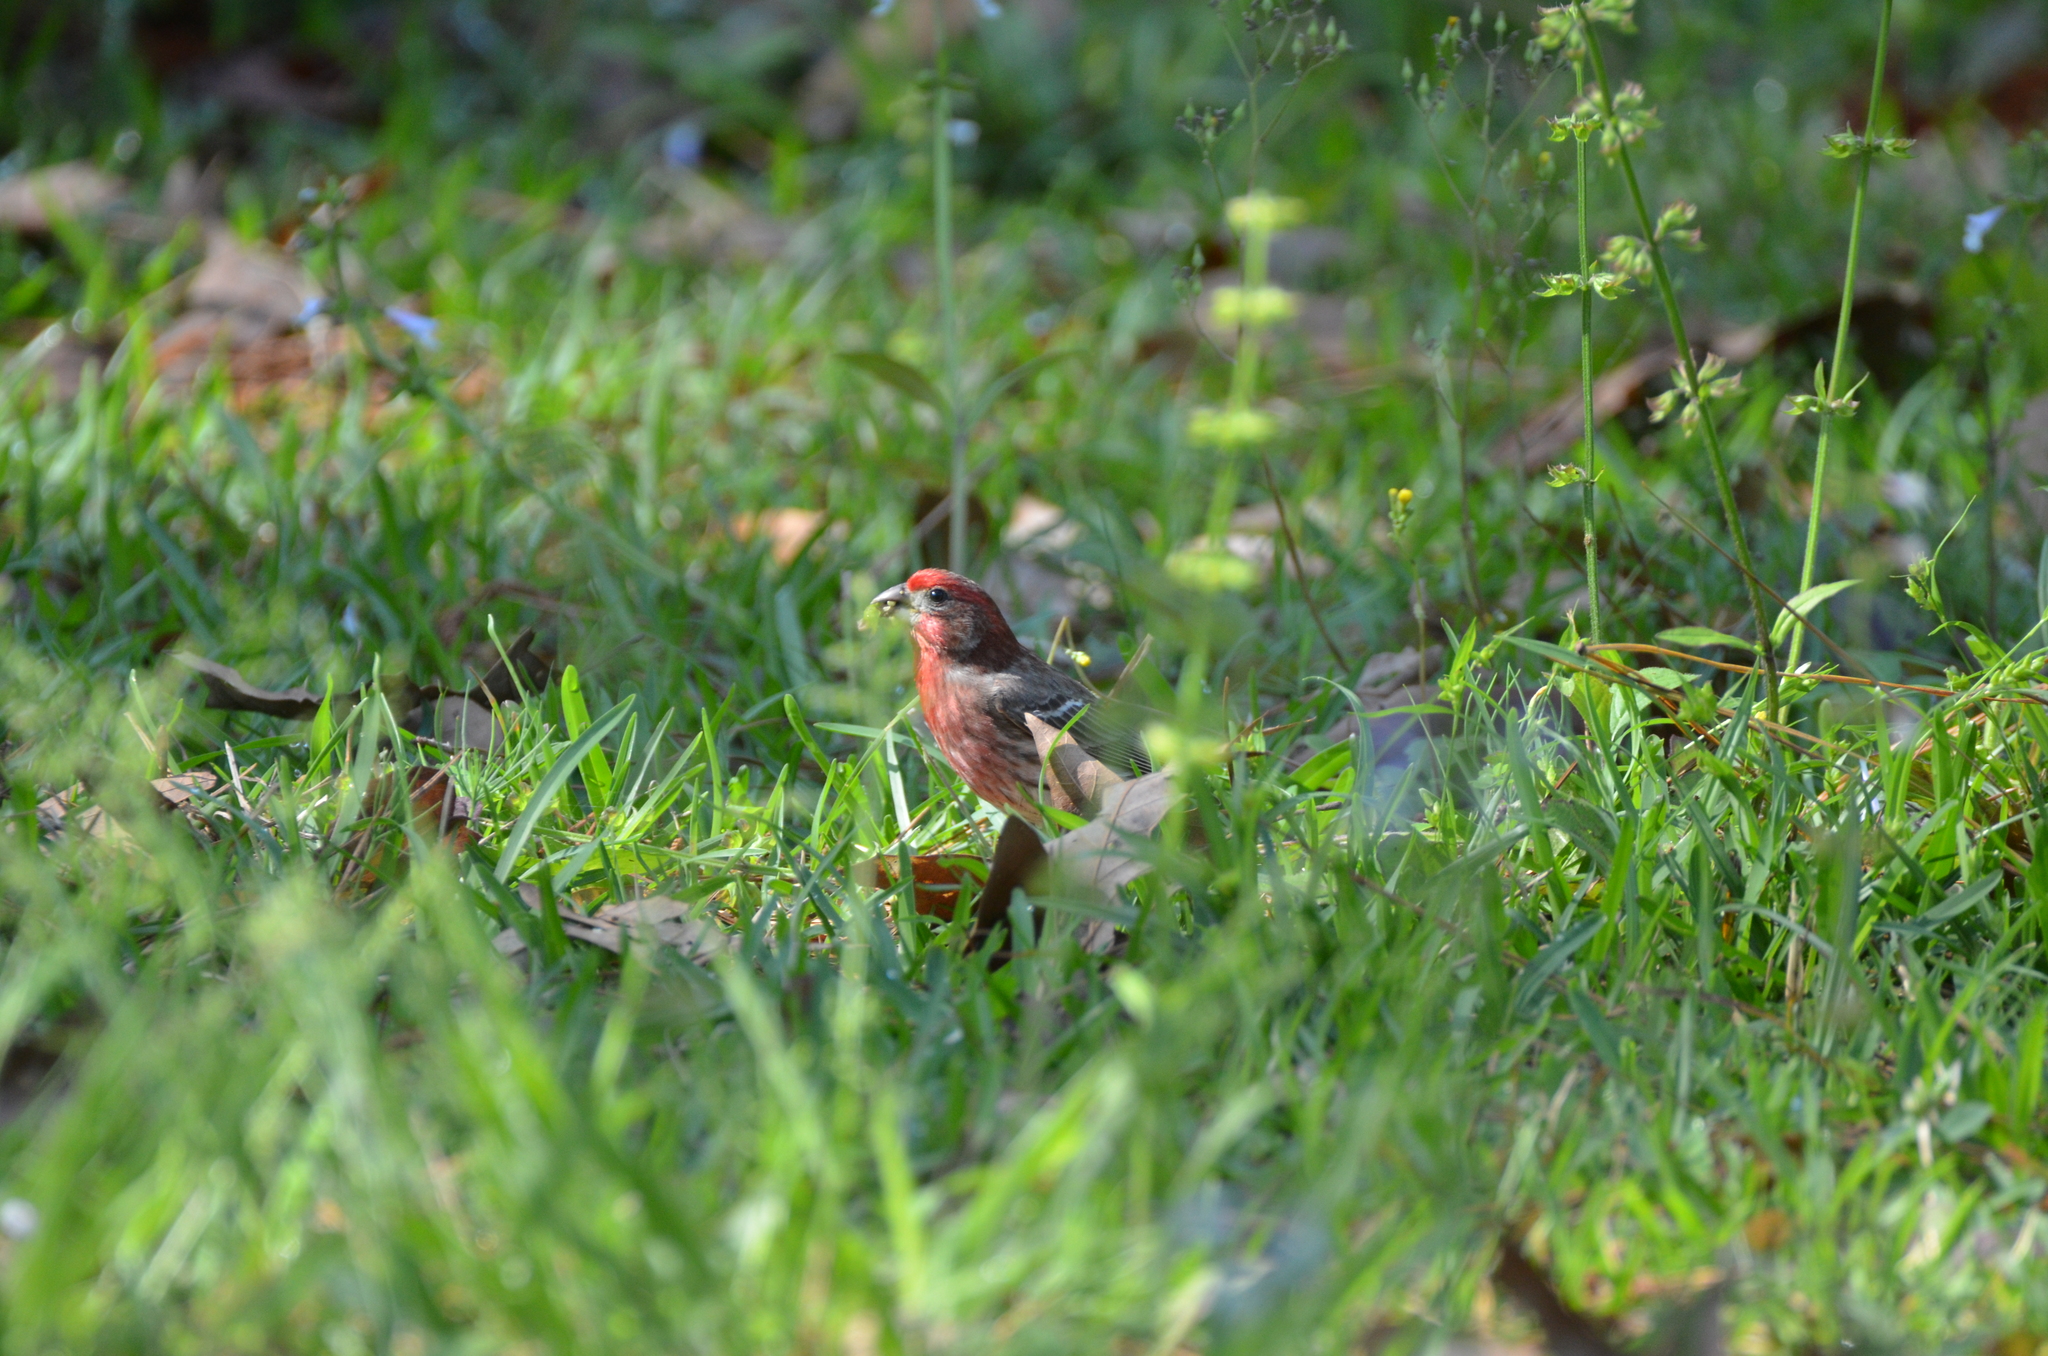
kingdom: Animalia
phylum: Chordata
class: Aves
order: Passeriformes
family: Fringillidae
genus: Haemorhous
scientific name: Haemorhous mexicanus
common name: House finch
